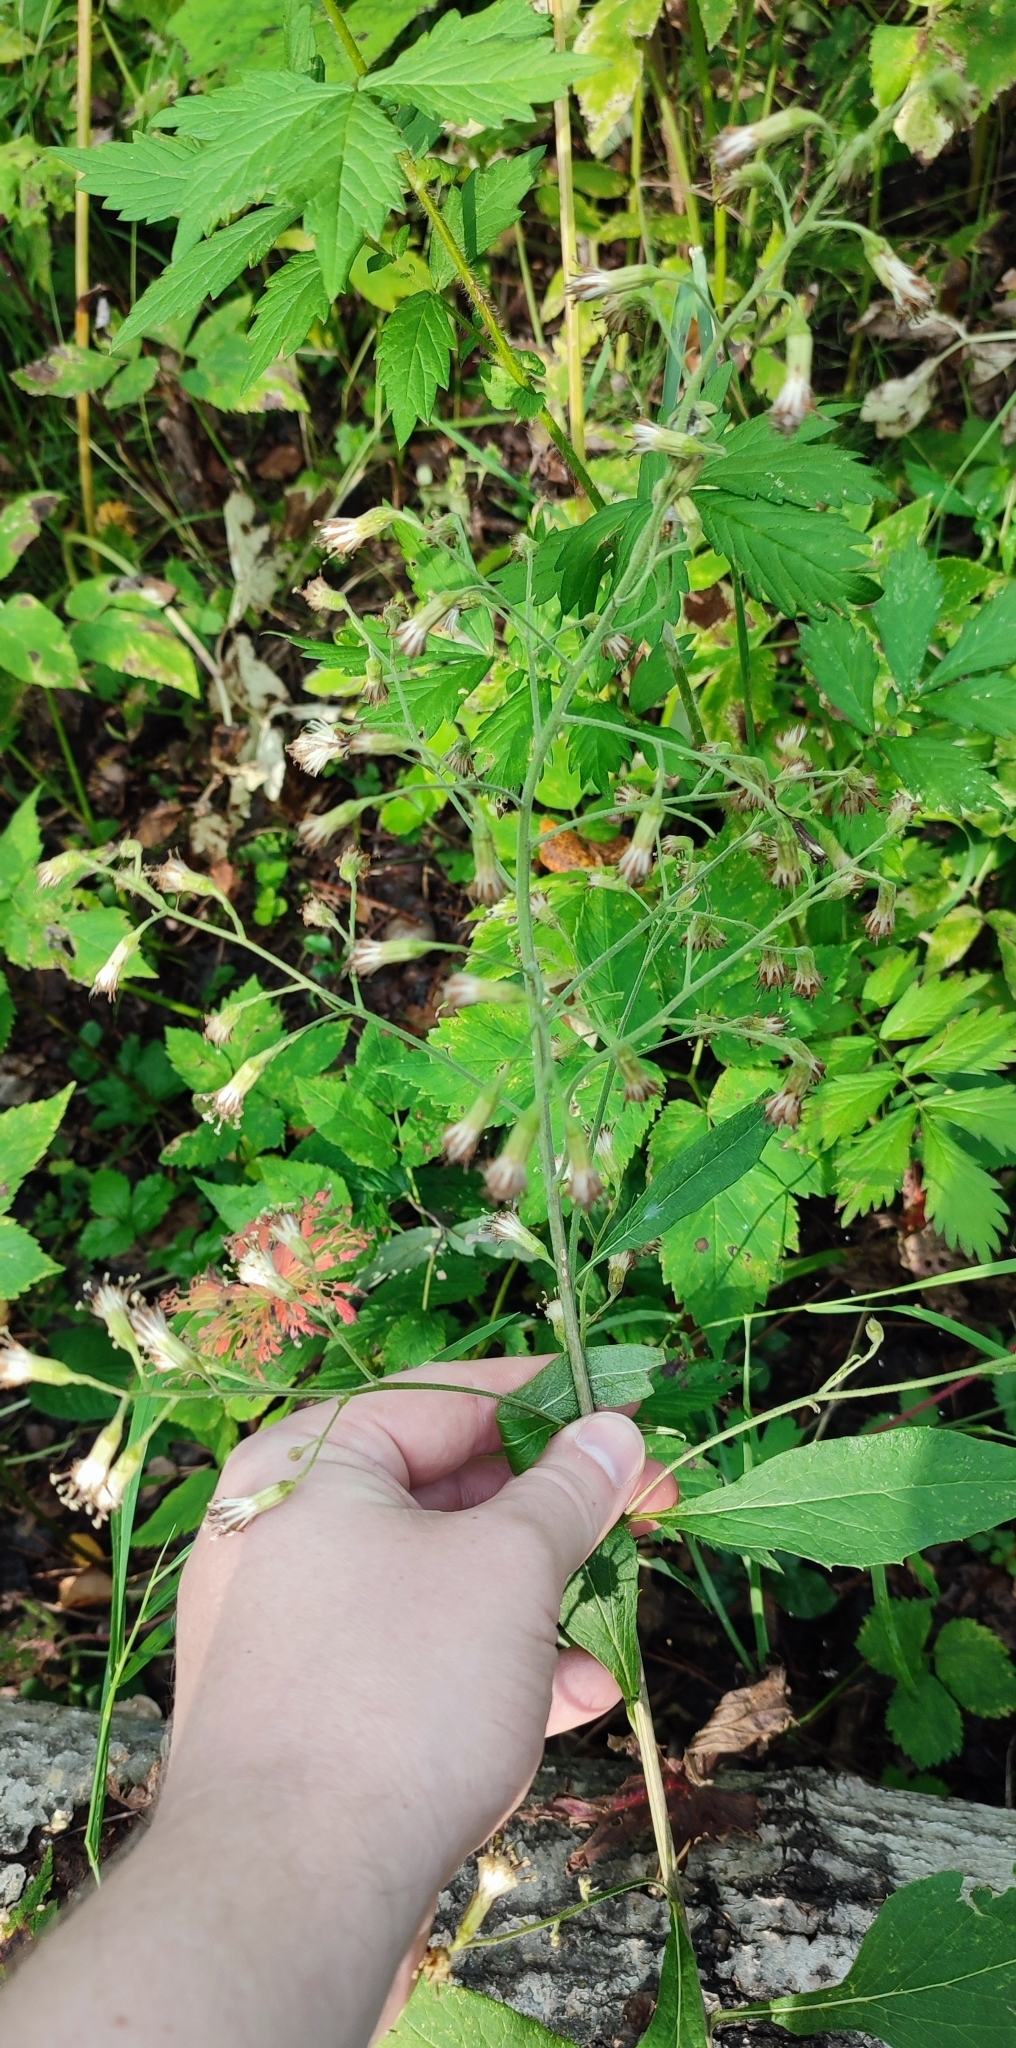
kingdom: Plantae
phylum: Tracheophyta
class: Magnoliopsida
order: Asterales
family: Asteraceae
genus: Parasenecio
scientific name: Parasenecio hastatus
